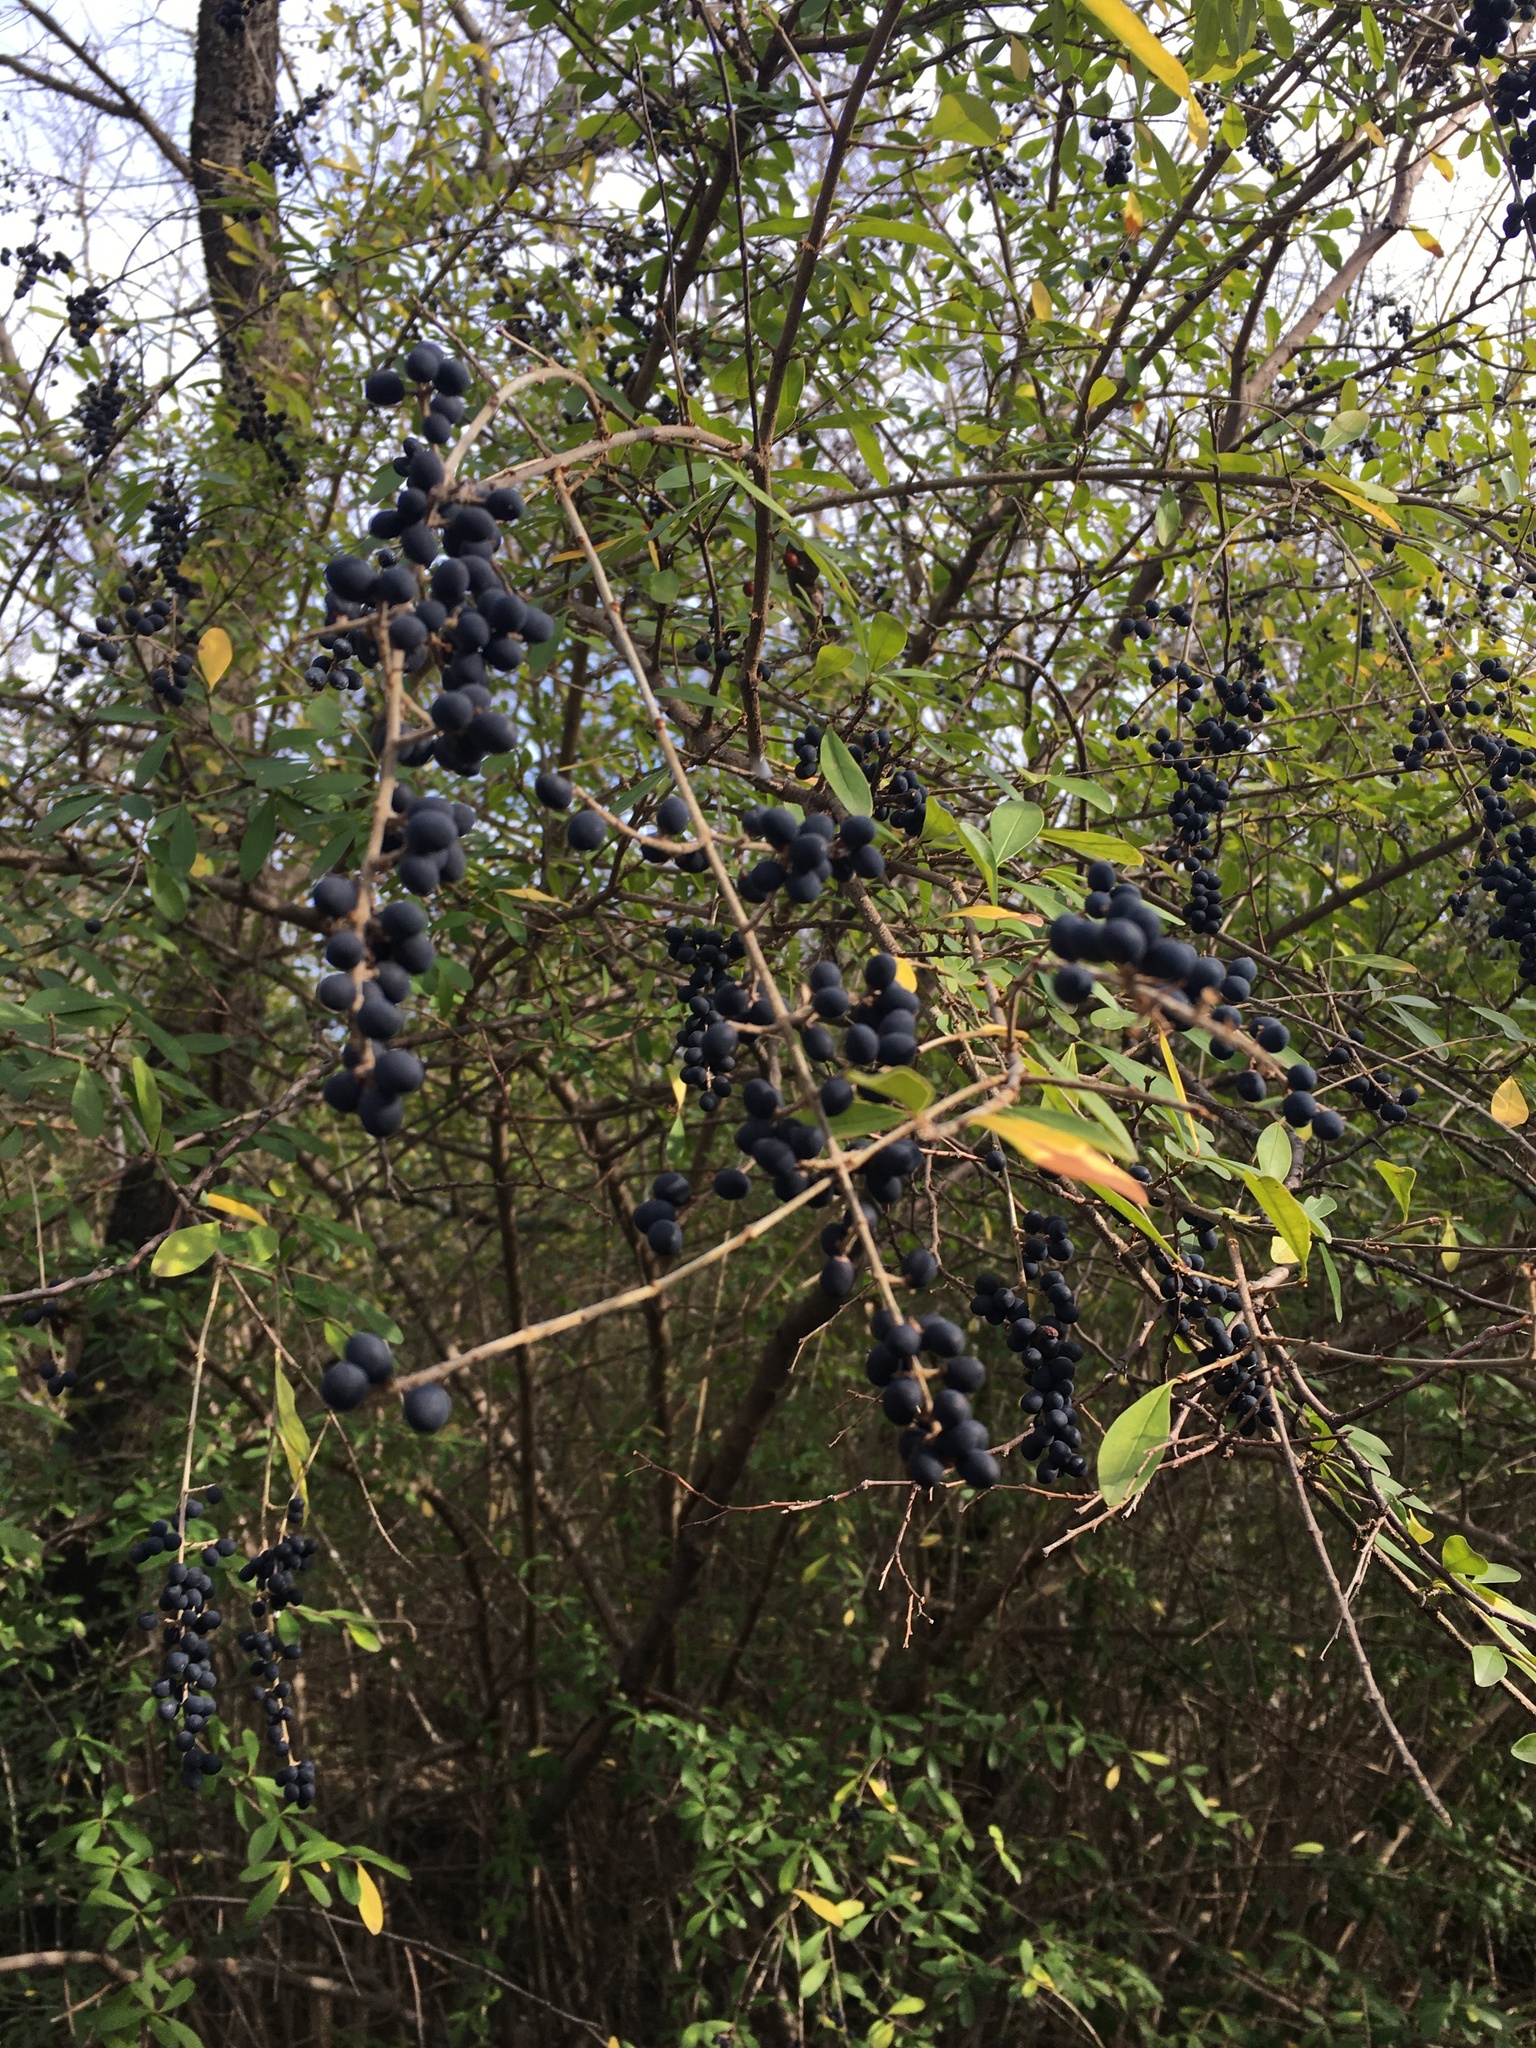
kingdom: Plantae
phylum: Tracheophyta
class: Magnoliopsida
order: Lamiales
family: Oleaceae
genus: Ligustrum
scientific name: Ligustrum quihoui
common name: Waxyleaf privet
